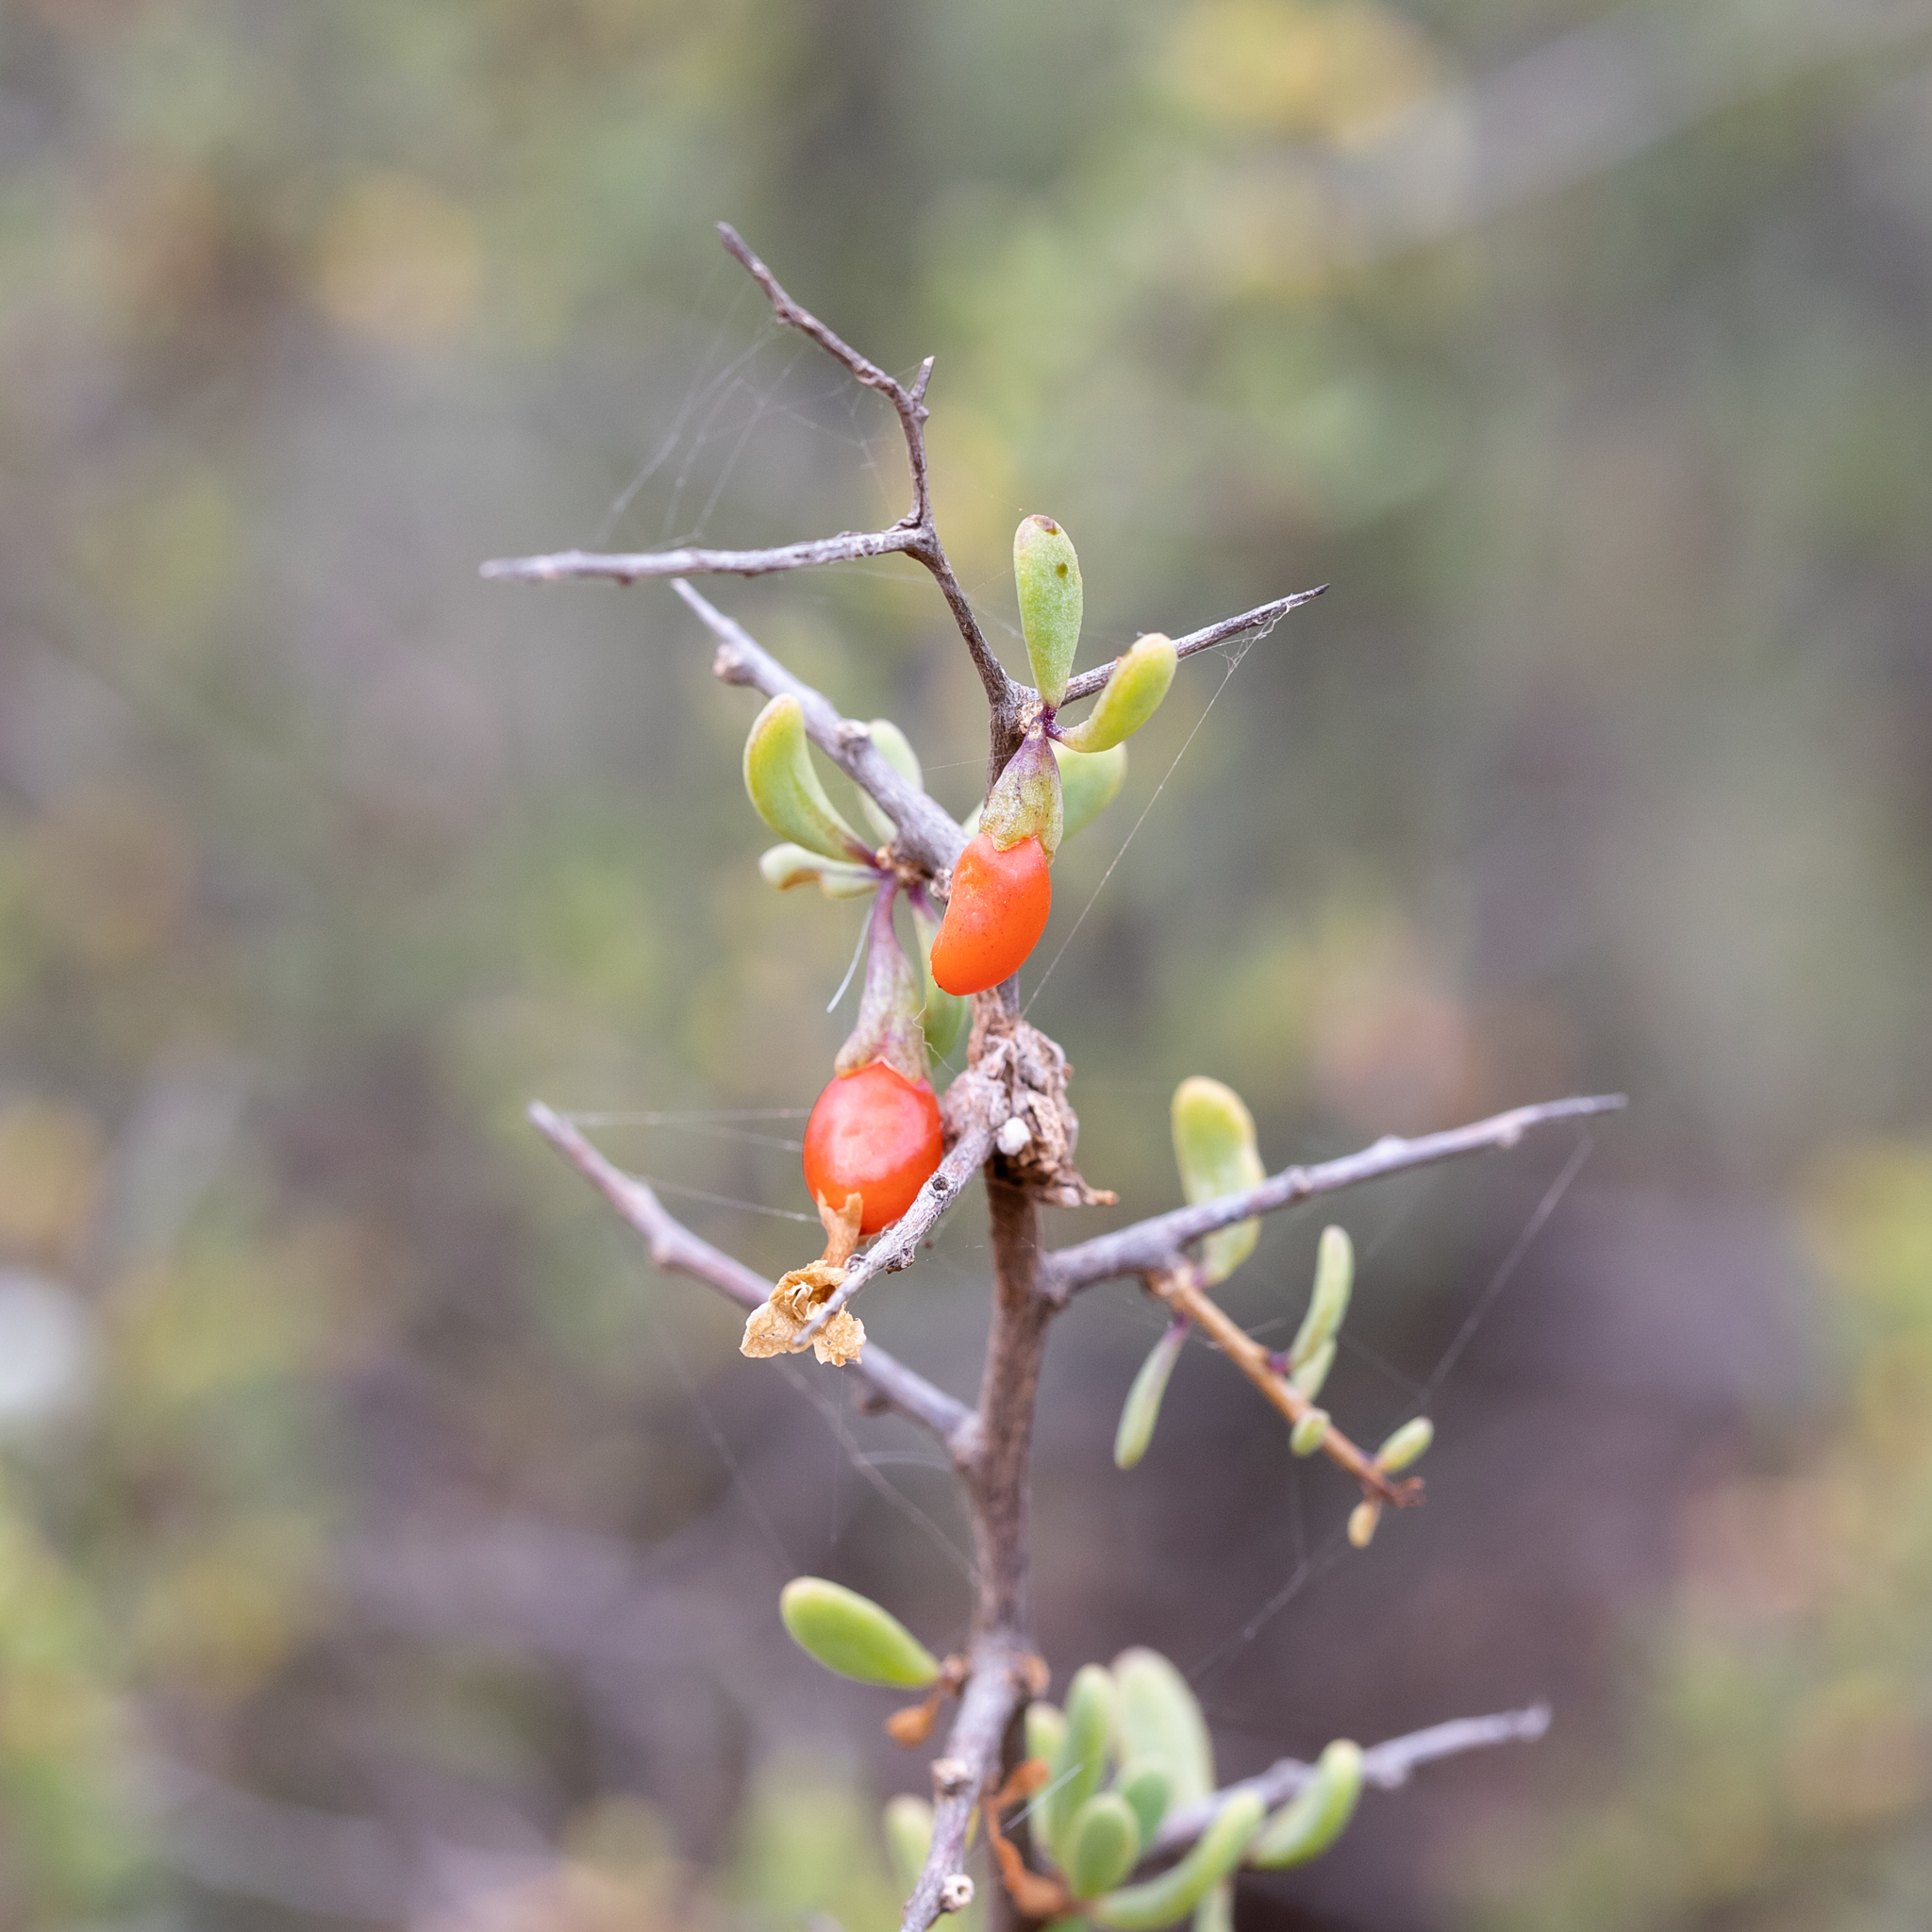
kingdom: Plantae
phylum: Tracheophyta
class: Magnoliopsida
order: Solanales
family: Solanaceae
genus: Lycium
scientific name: Lycium australe
